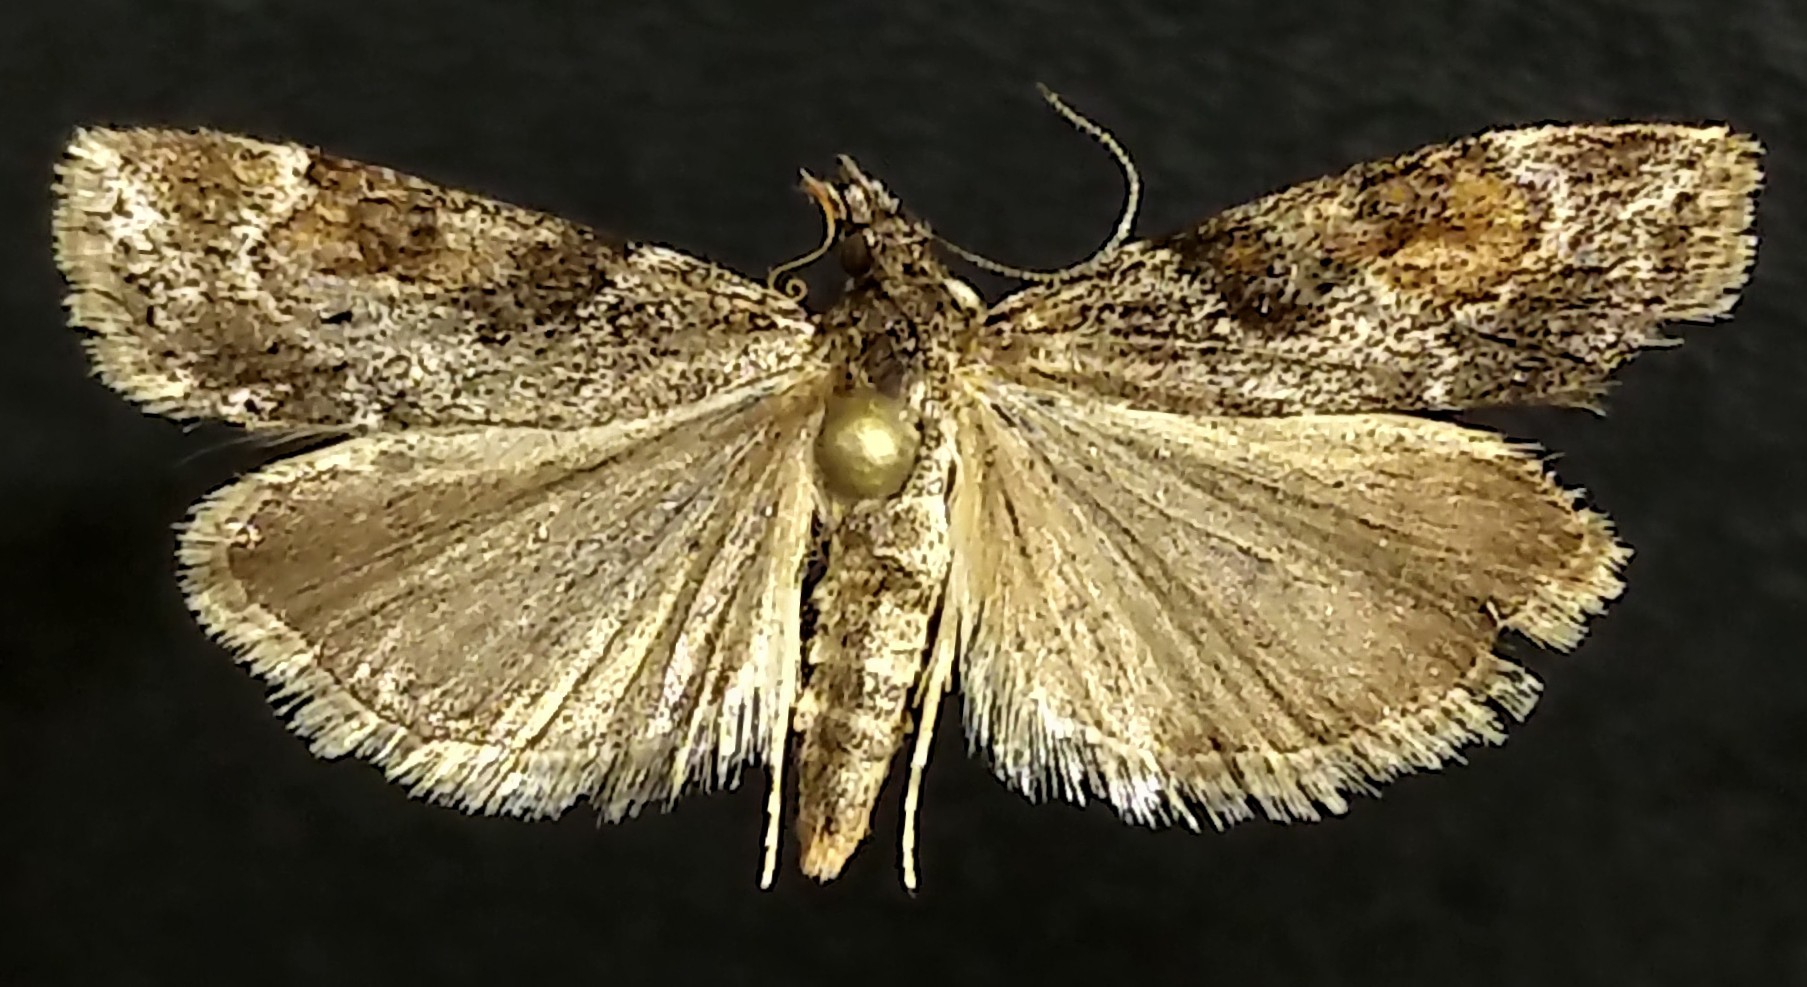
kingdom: Animalia
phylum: Arthropoda
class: Insecta
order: Lepidoptera
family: Crambidae
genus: Cosipara
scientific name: Cosipara tricoloralis
